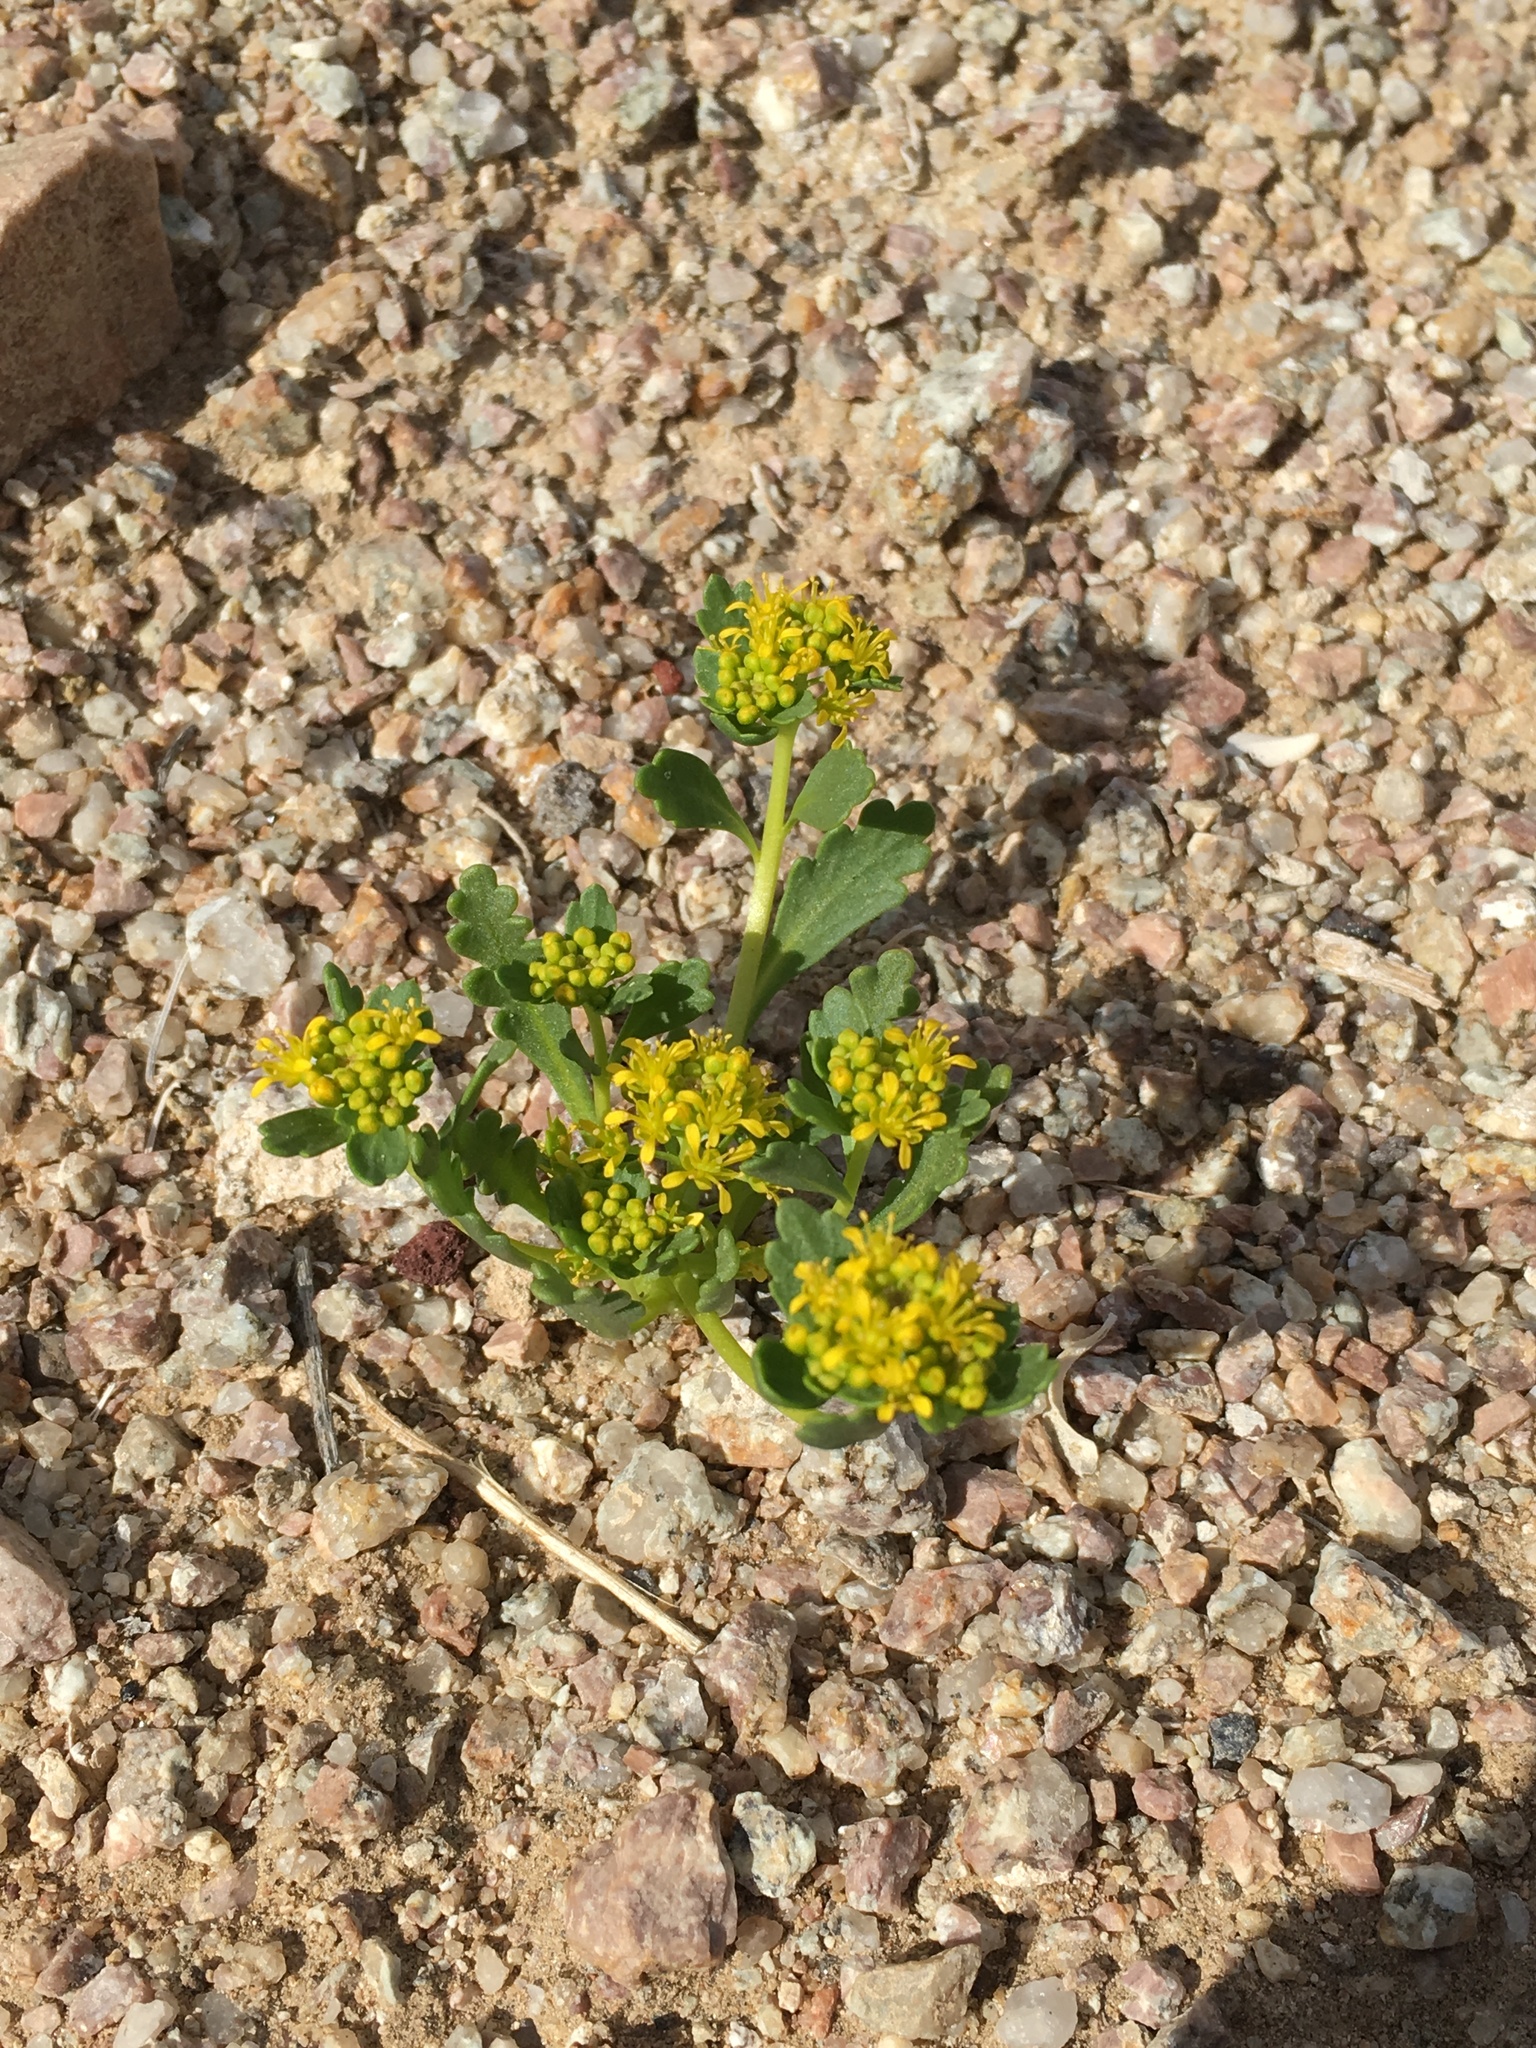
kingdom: Plantae
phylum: Tracheophyta
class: Magnoliopsida
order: Brassicales
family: Brassicaceae
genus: Lepidium
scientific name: Lepidium flavum
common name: Yellow pepperwort
